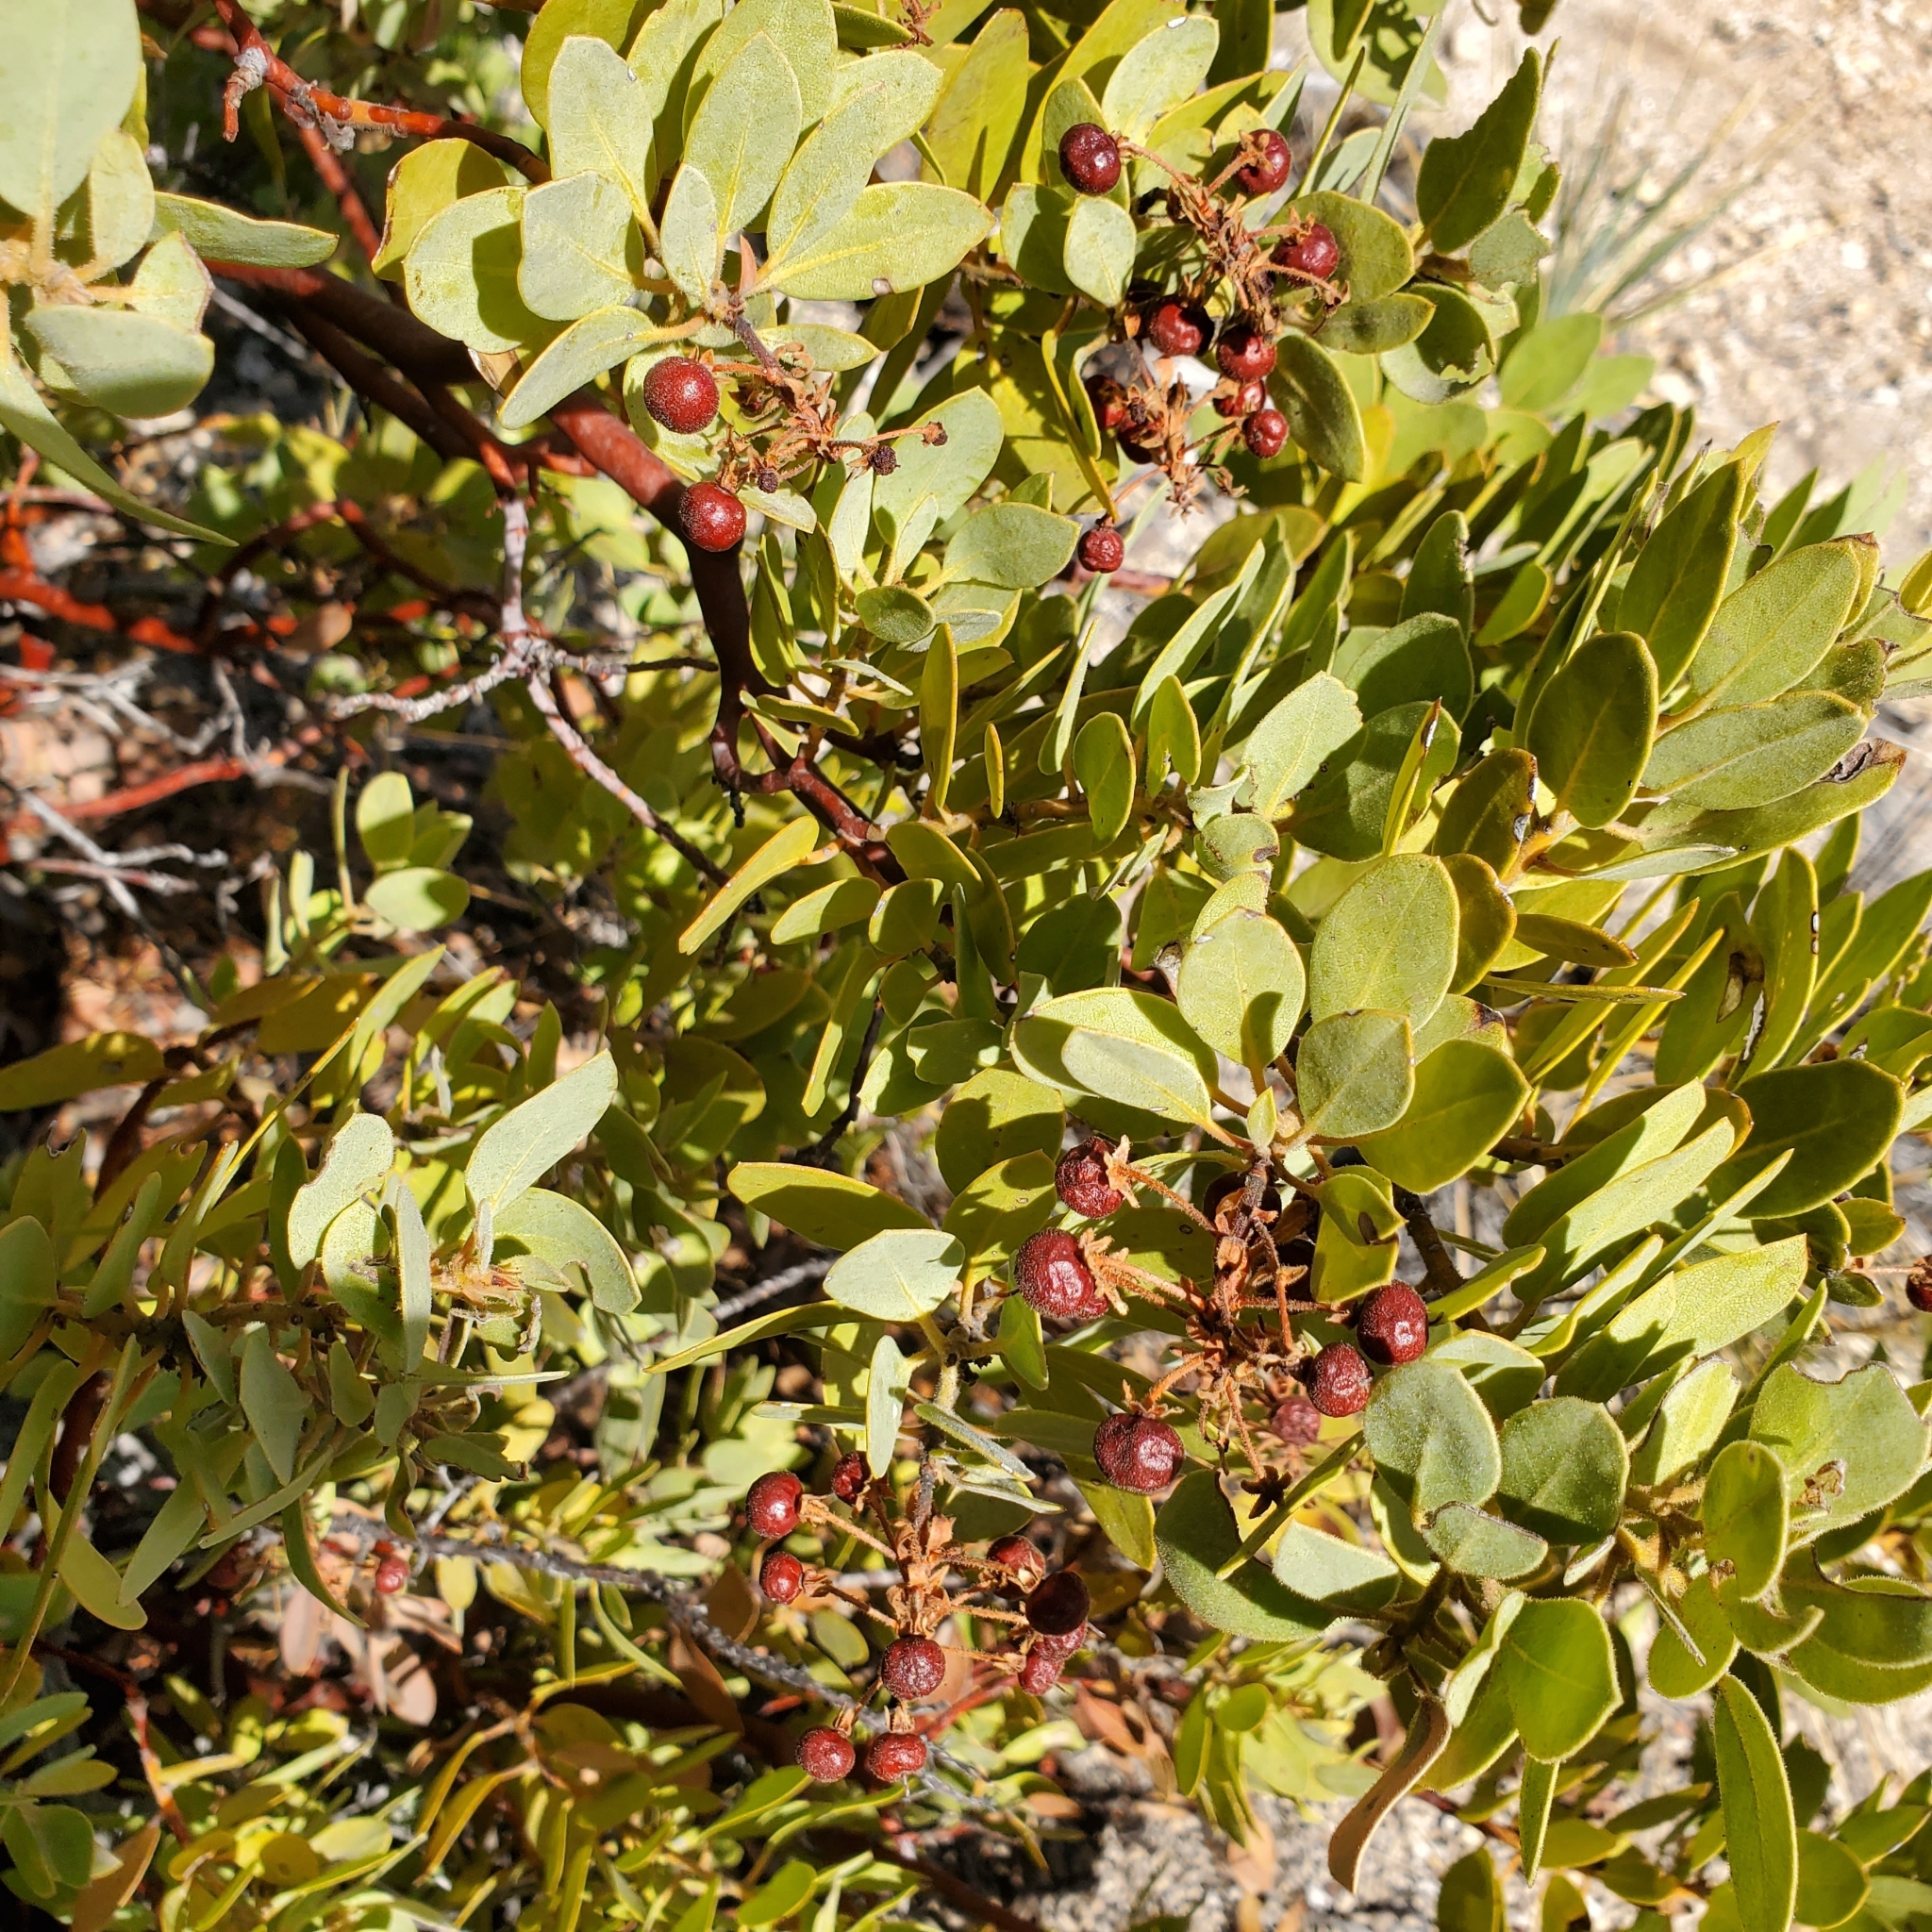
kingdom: Plantae
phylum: Tracheophyta
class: Magnoliopsida
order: Ericales
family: Ericaceae
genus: Arctostaphylos
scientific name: Arctostaphylos pringlei
